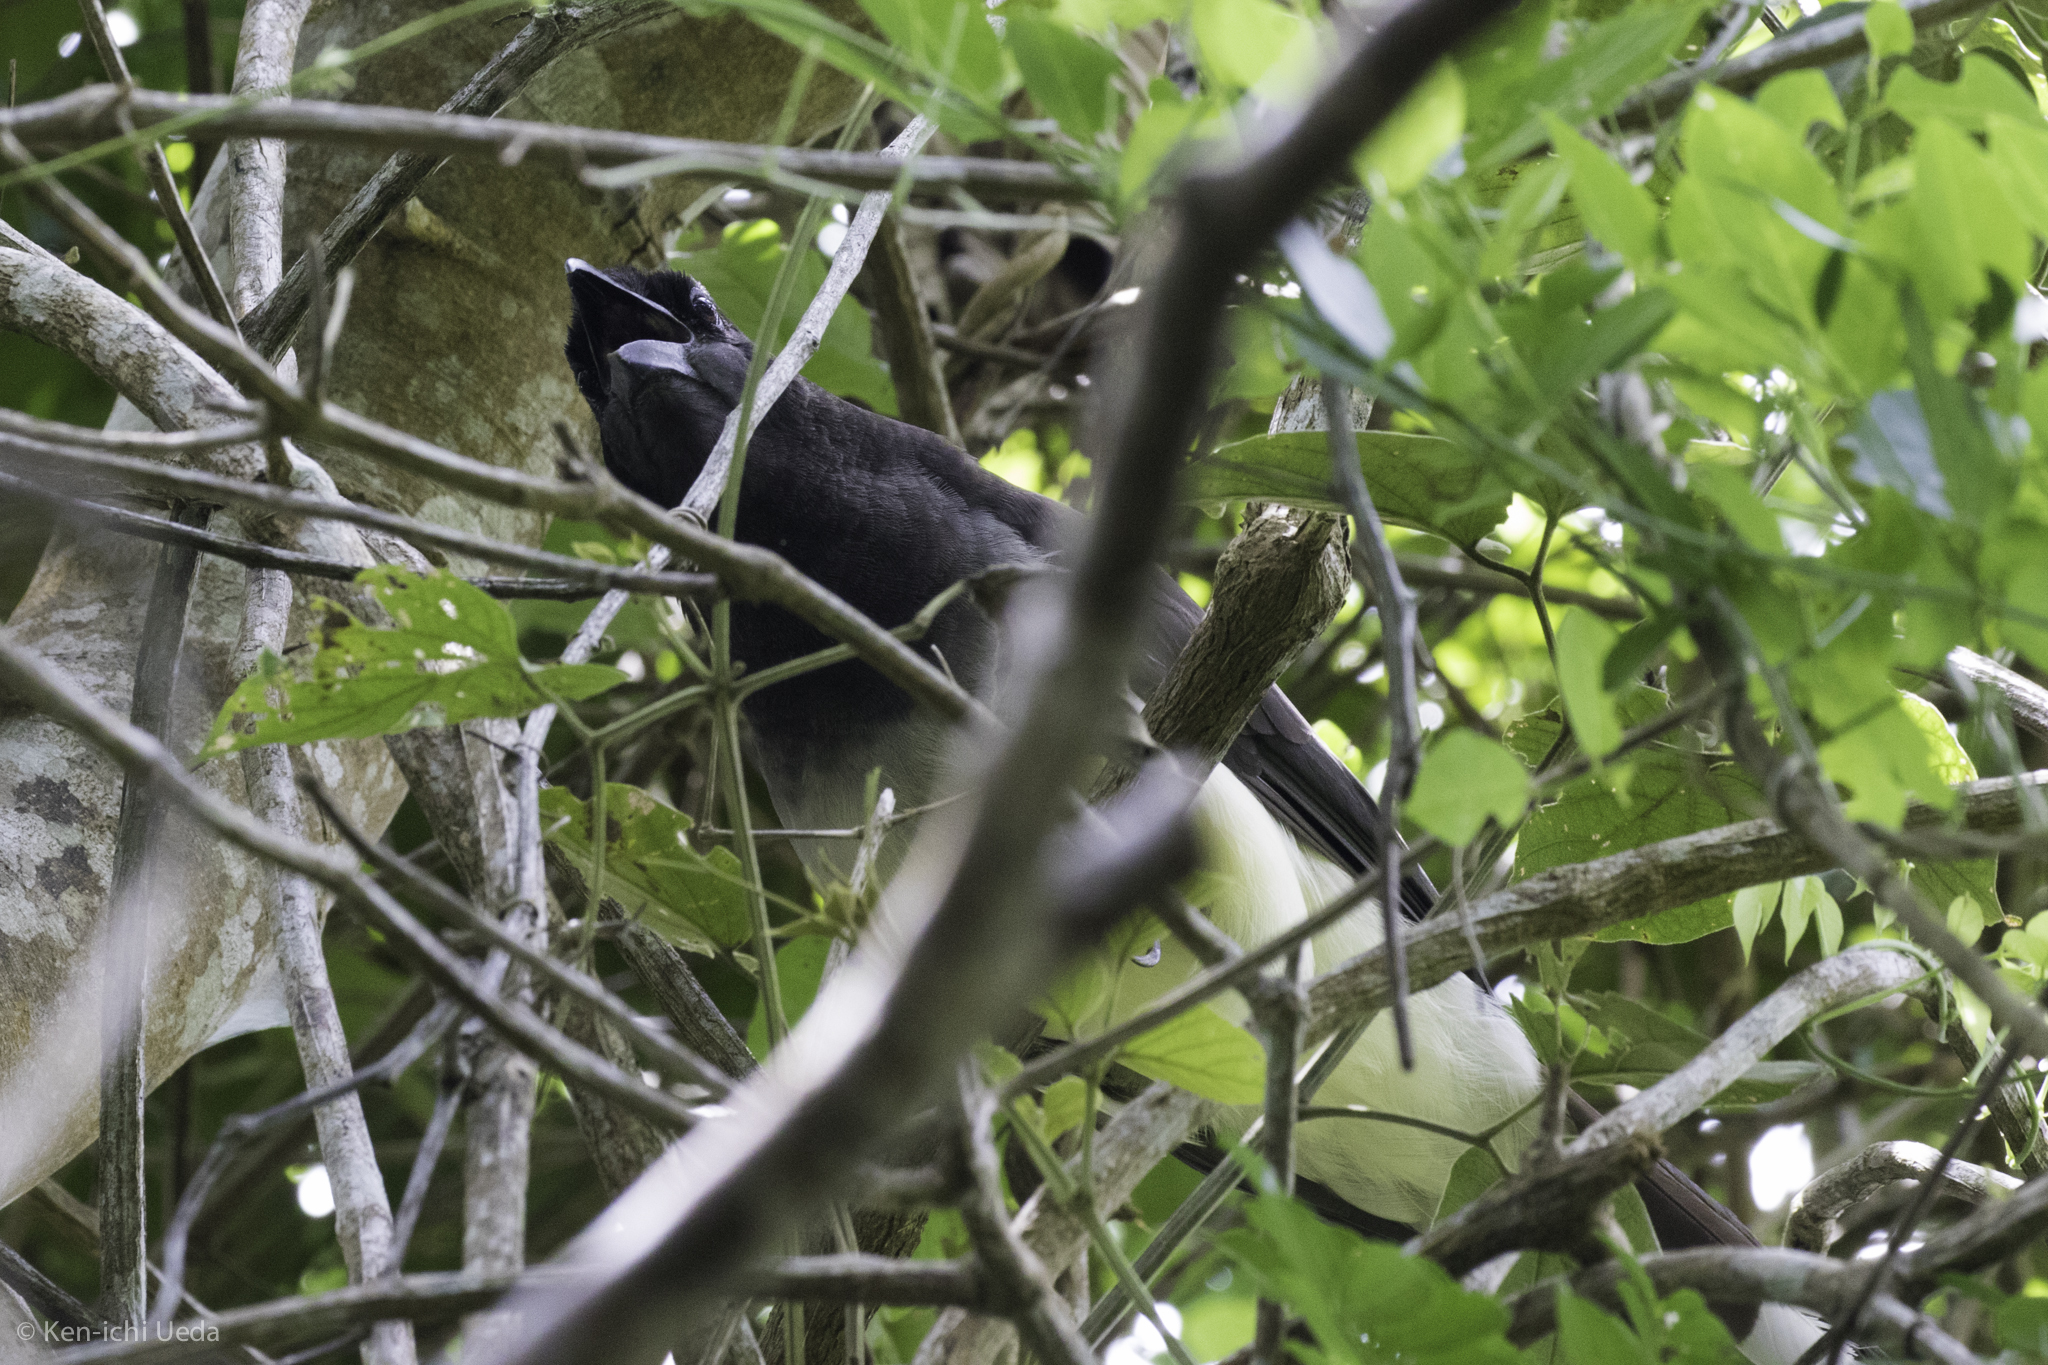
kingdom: Animalia
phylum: Chordata
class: Aves
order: Passeriformes
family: Corvidae
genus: Psilorhinus
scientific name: Psilorhinus morio
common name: Brown jay
